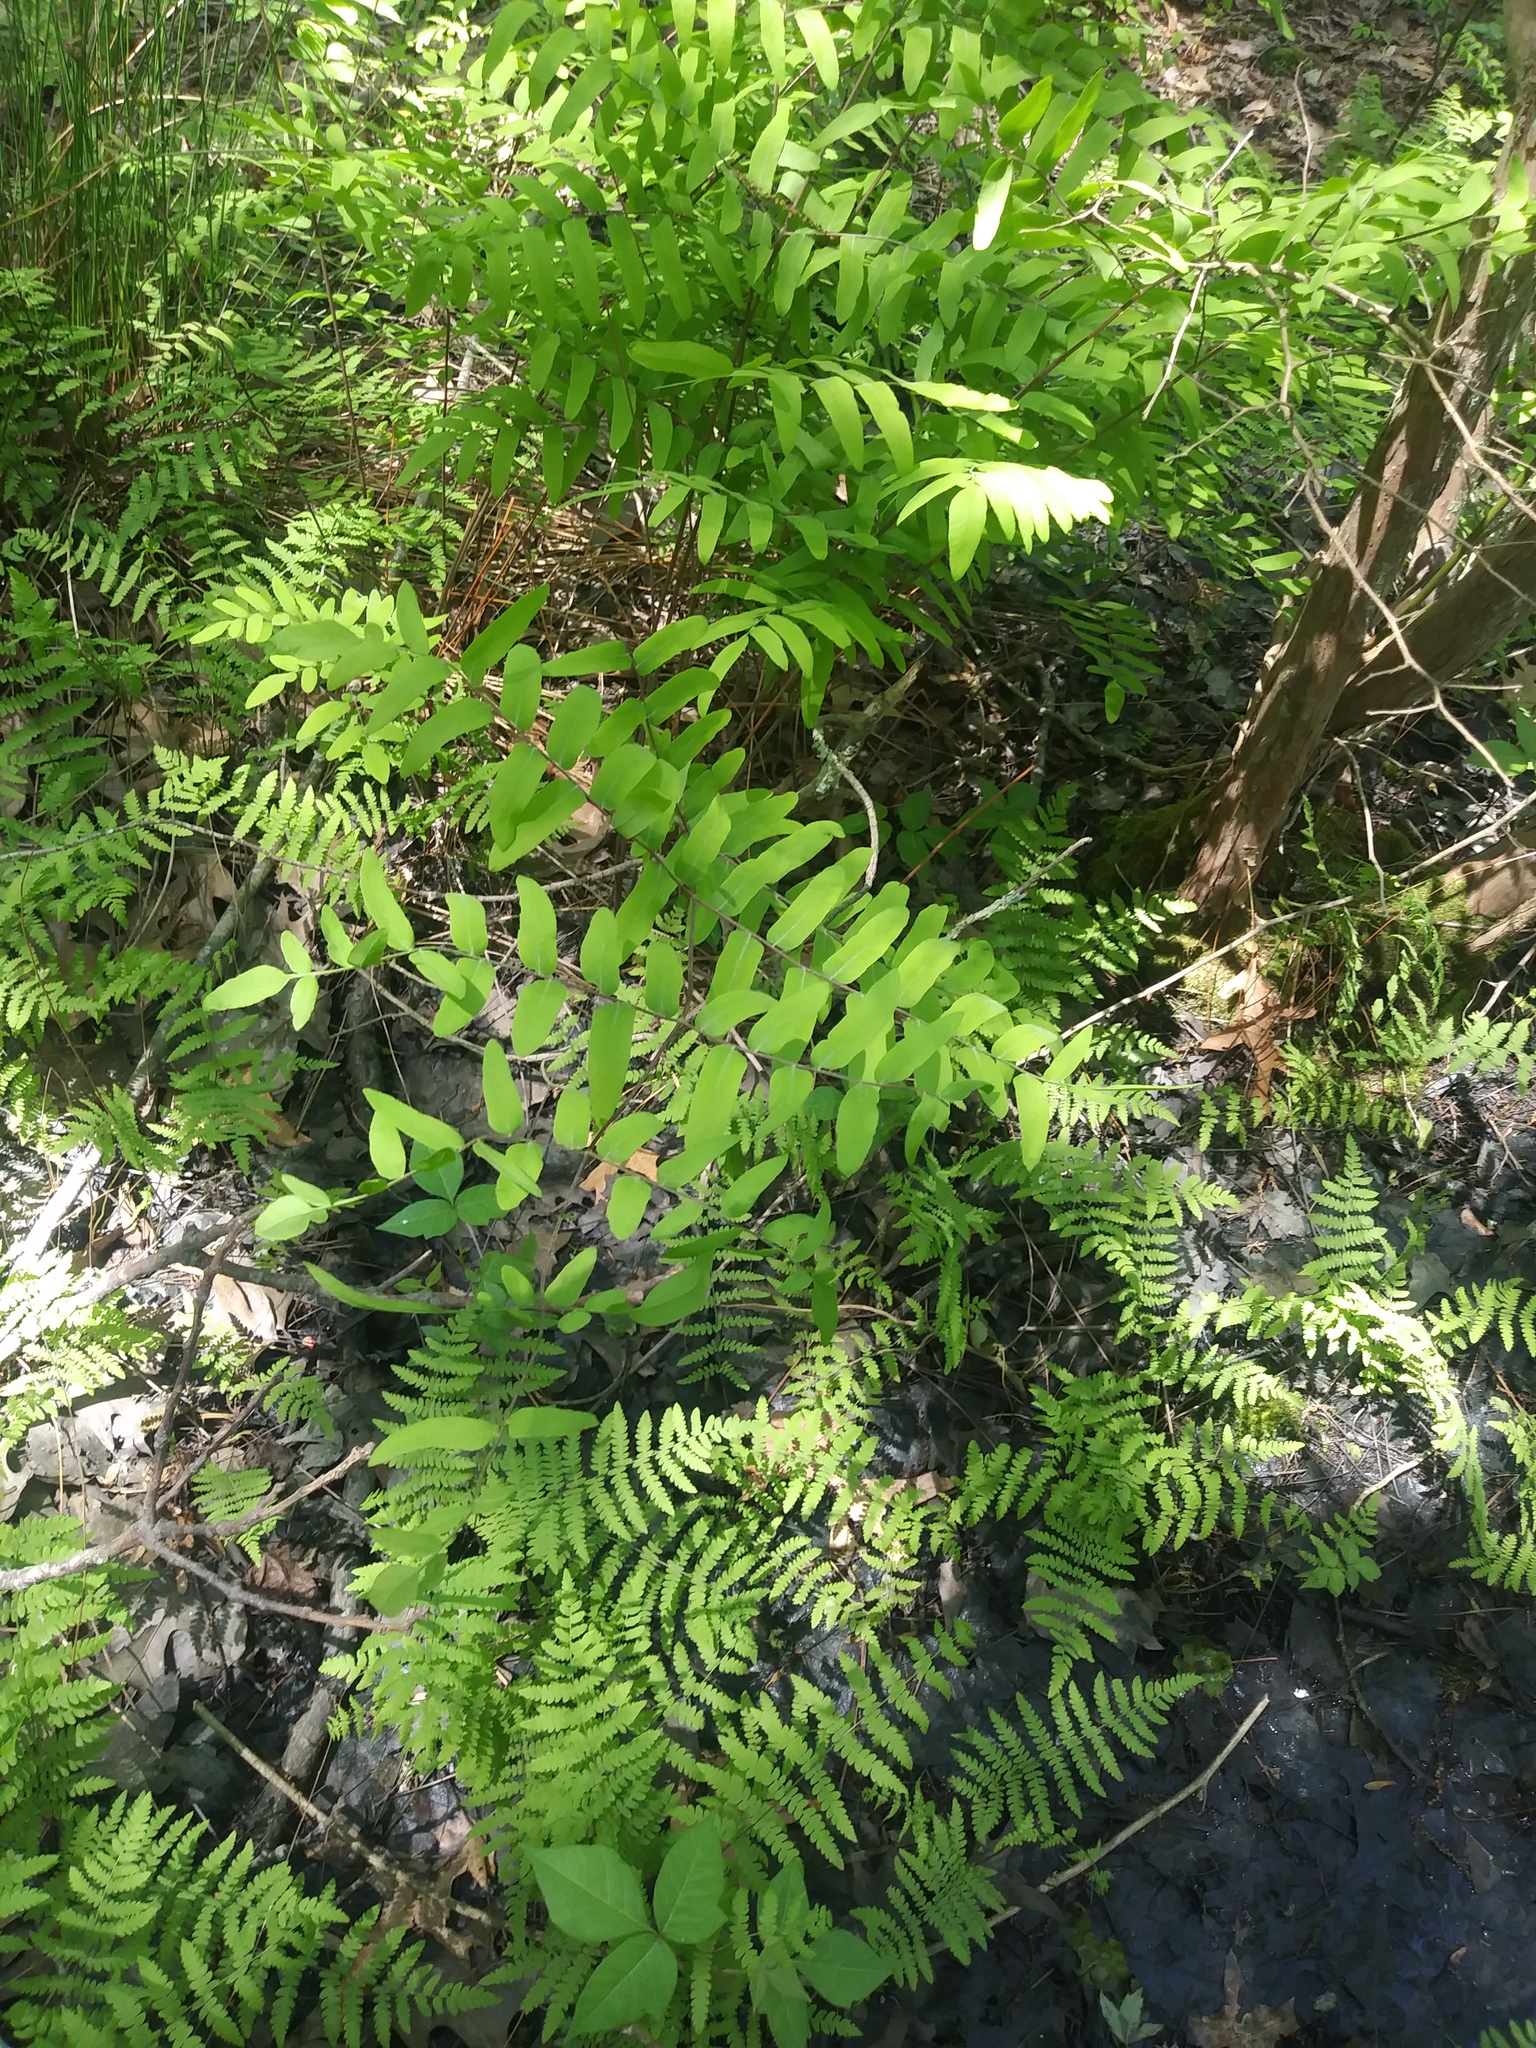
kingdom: Plantae
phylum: Tracheophyta
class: Polypodiopsida
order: Osmundales
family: Osmundaceae
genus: Osmunda
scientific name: Osmunda spectabilis
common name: American royal fern
